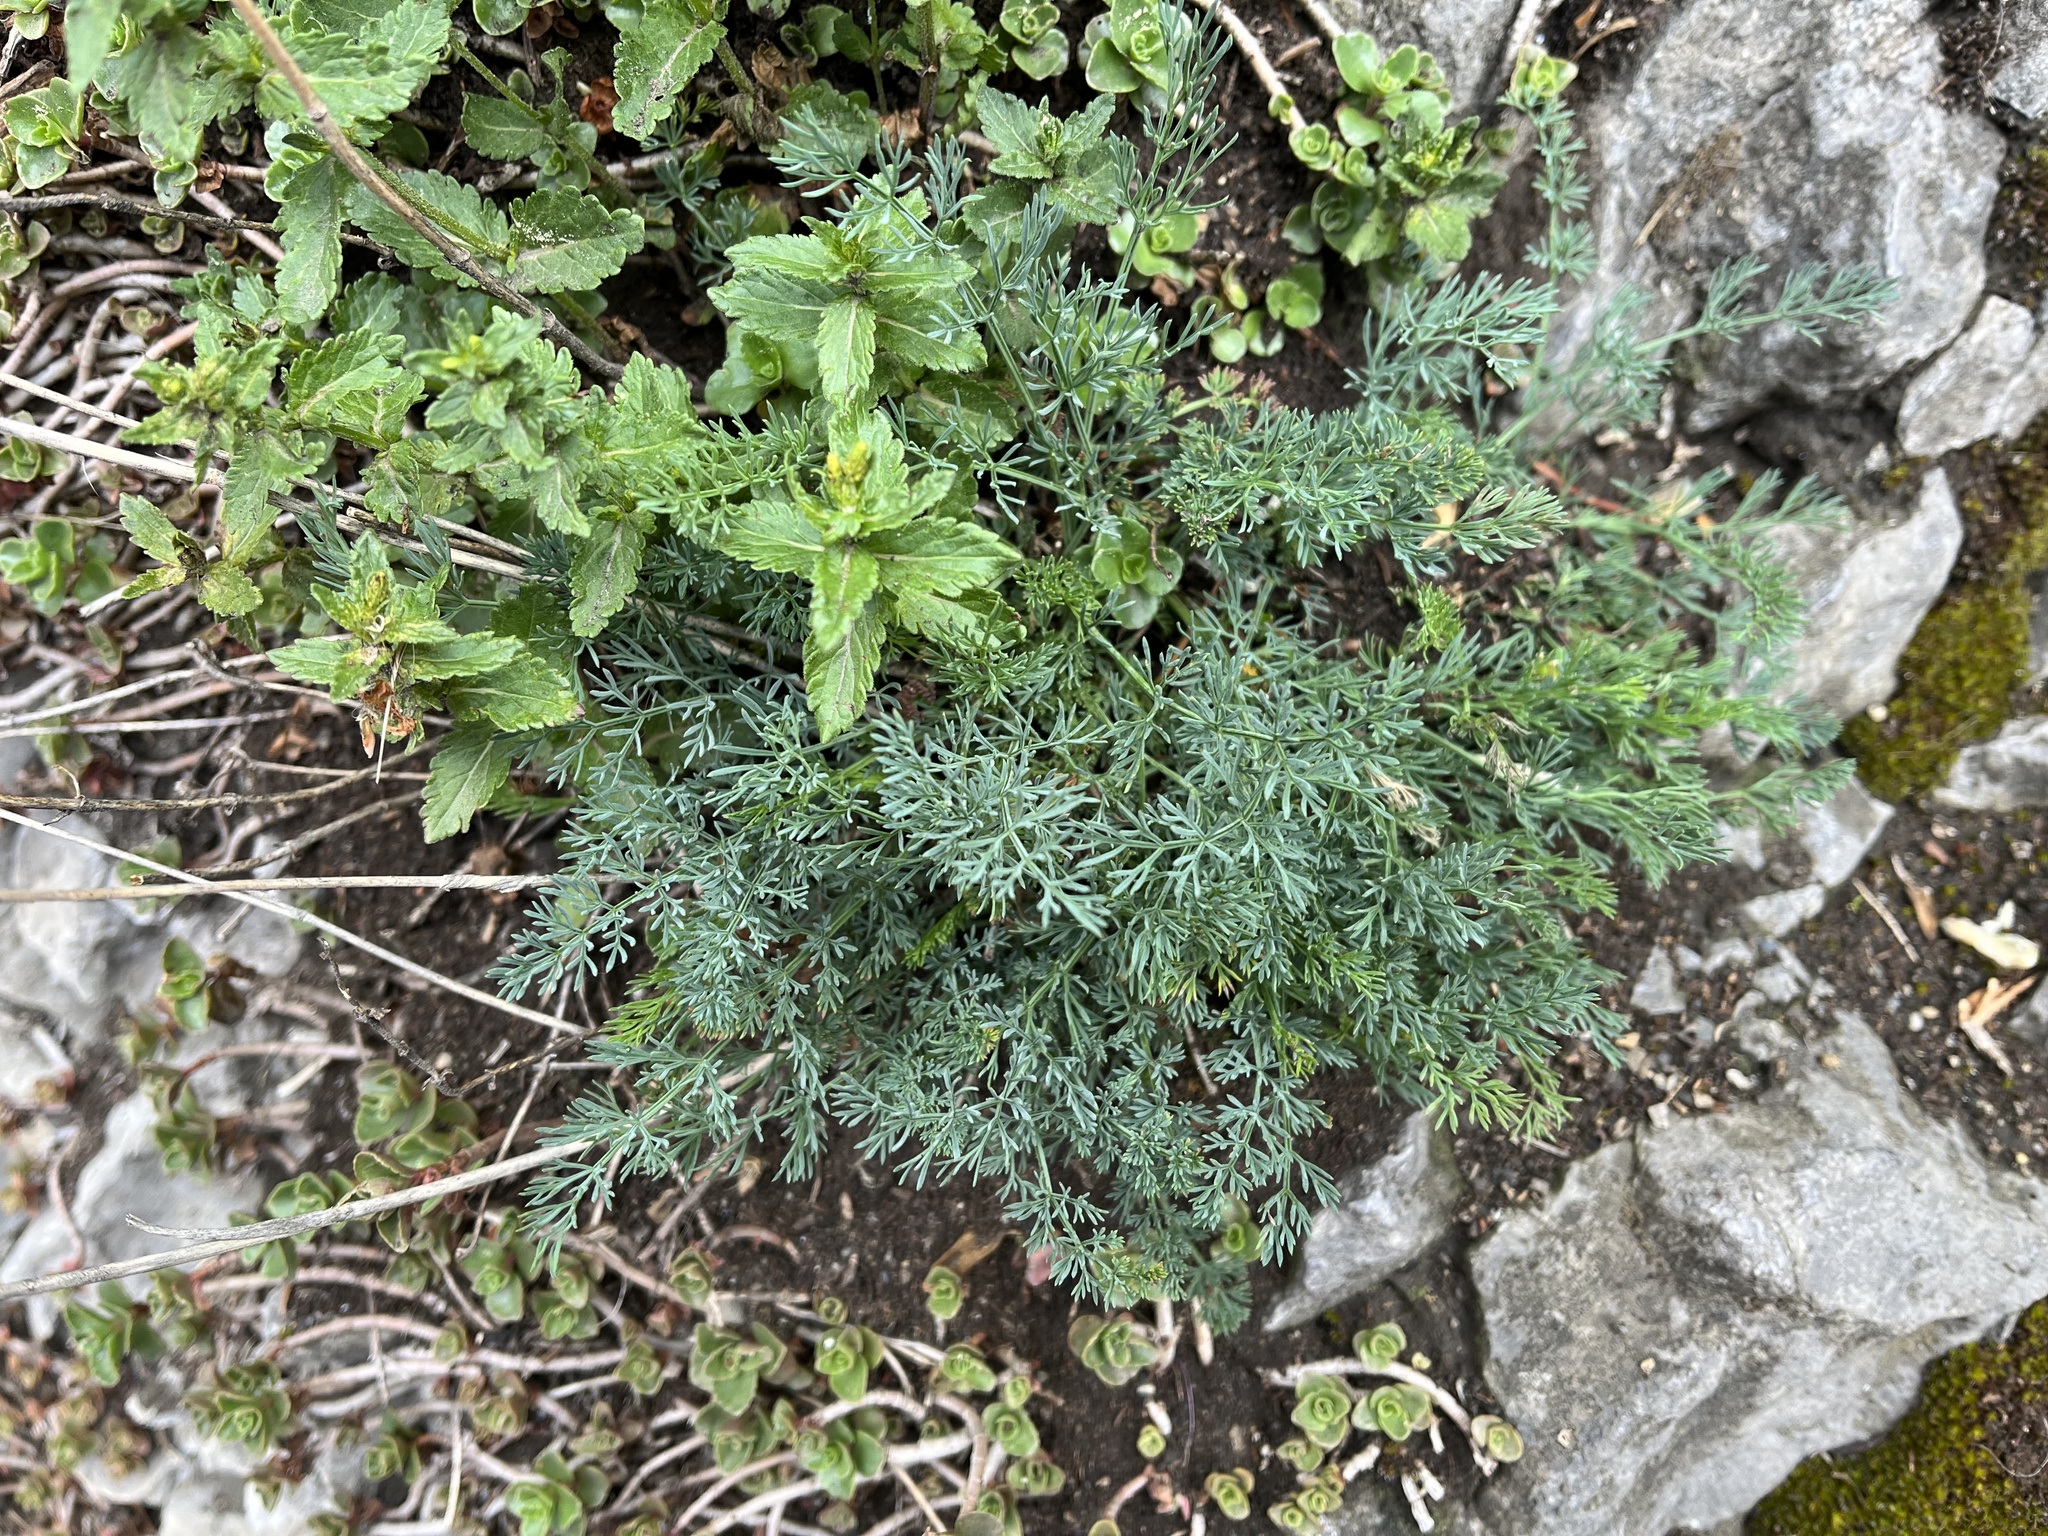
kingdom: Plantae
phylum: Tracheophyta
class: Magnoliopsida
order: Apiales
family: Apiaceae
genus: Hippomarathrum
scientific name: Hippomarathrum
